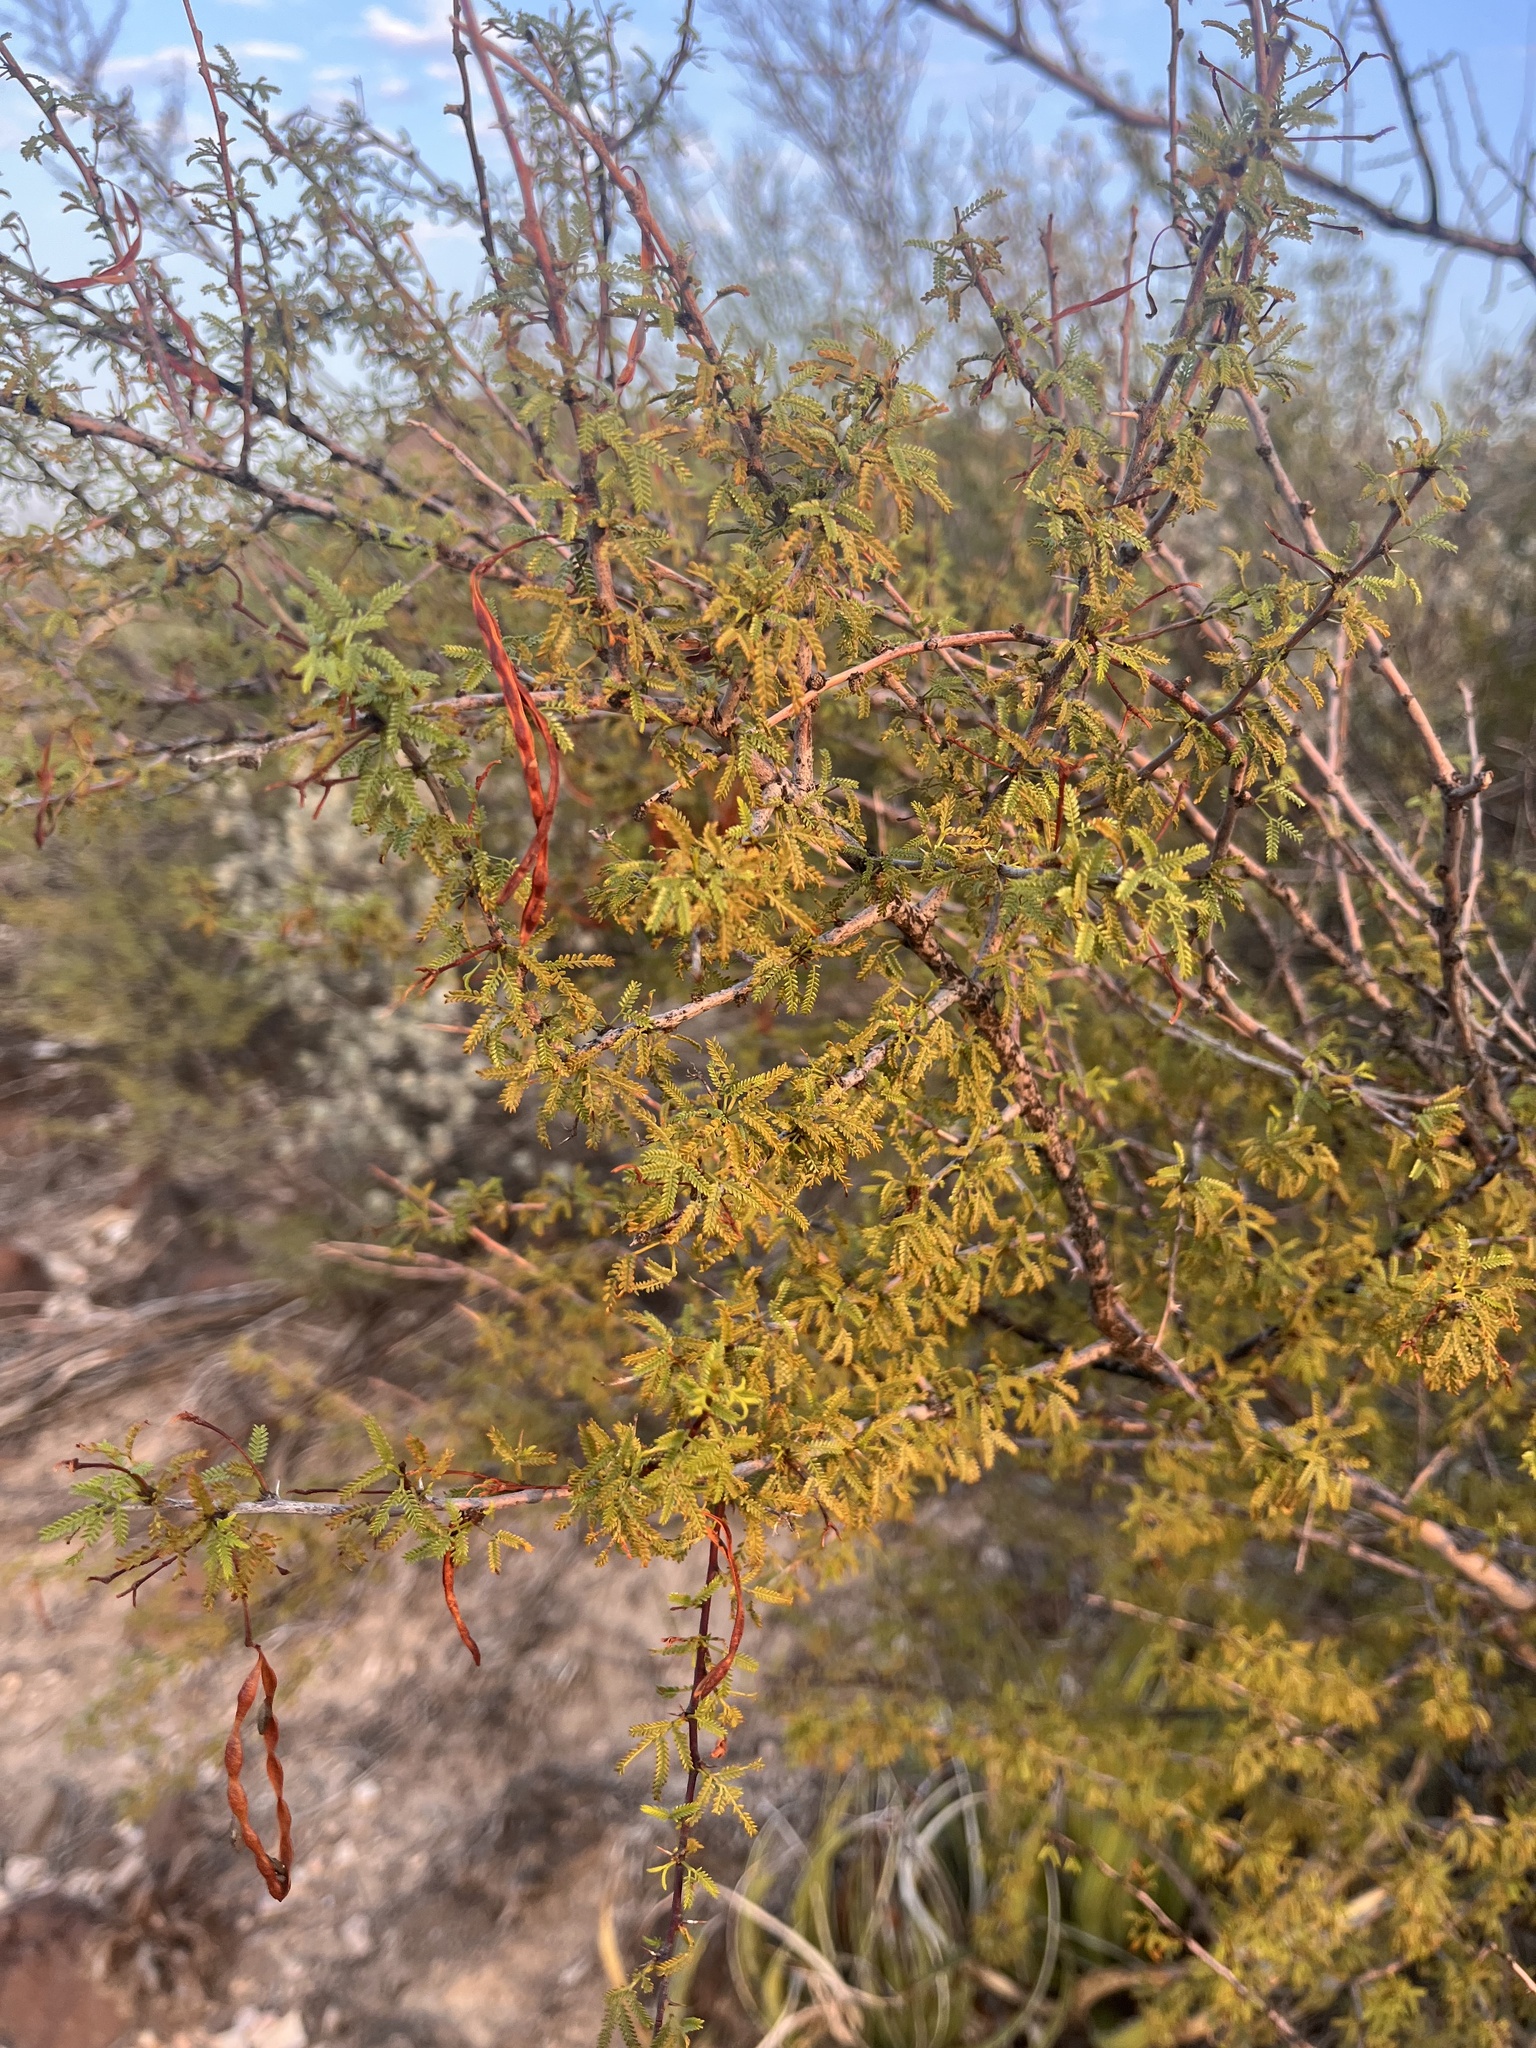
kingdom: Plantae
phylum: Tracheophyta
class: Magnoliopsida
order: Fabales
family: Fabaceae
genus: Vachellia
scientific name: Vachellia vernicosa
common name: Viscid acacia
